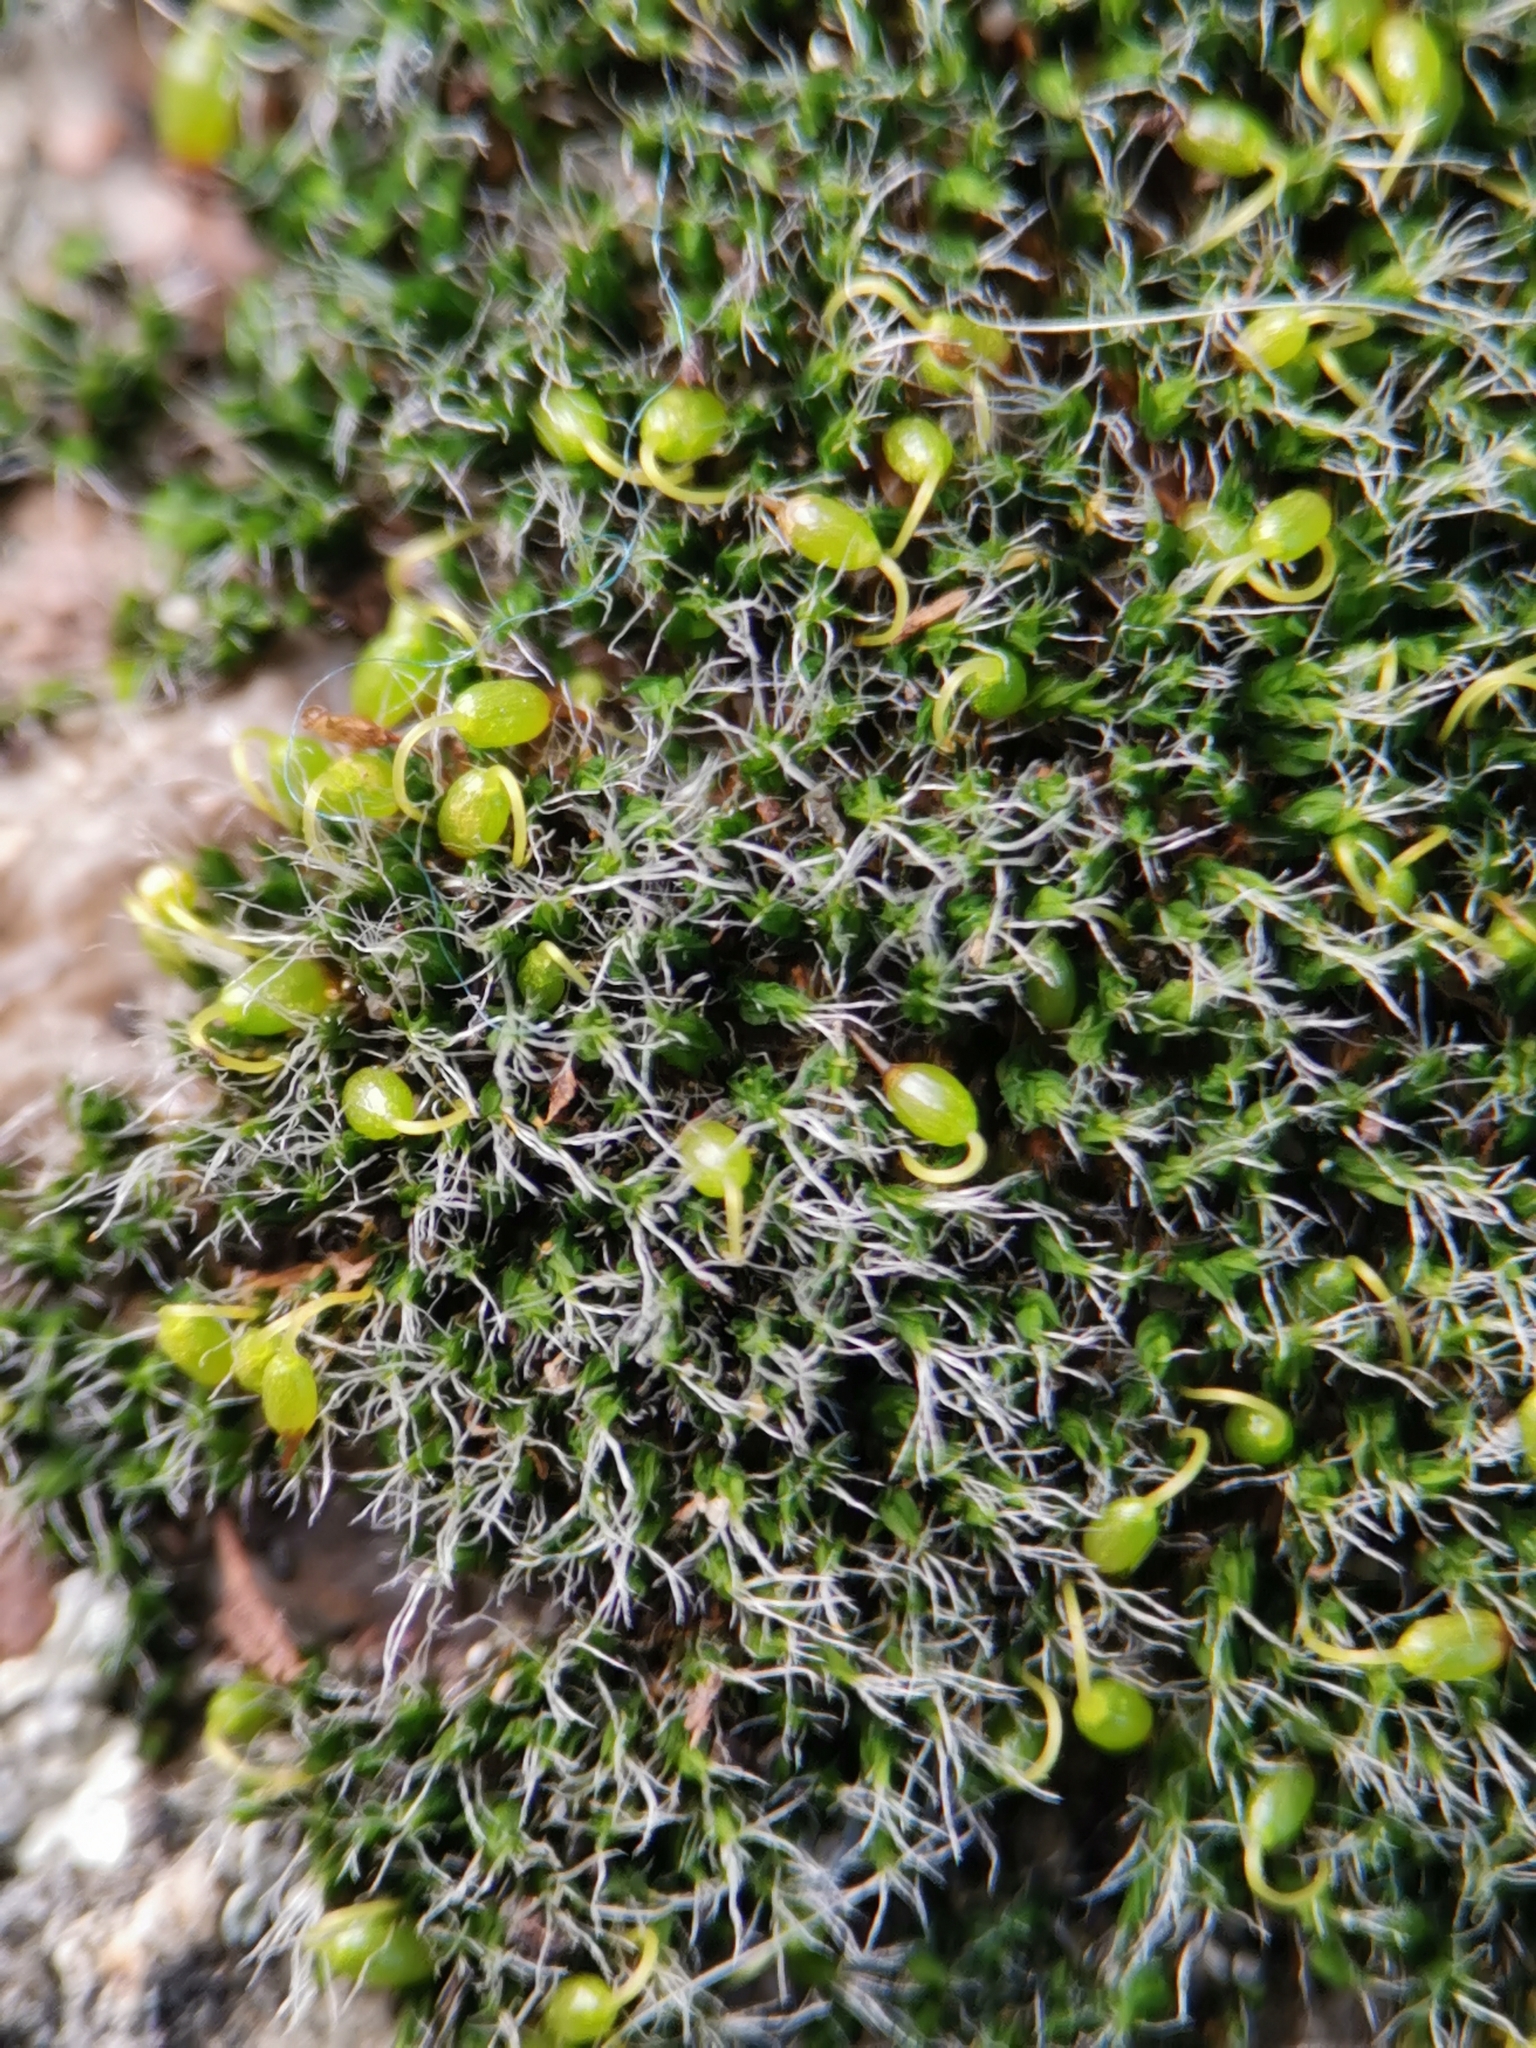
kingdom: Plantae
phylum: Bryophyta
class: Bryopsida
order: Grimmiales
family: Grimmiaceae
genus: Grimmia
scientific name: Grimmia pulvinata
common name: Grey-cushioned grimmia
